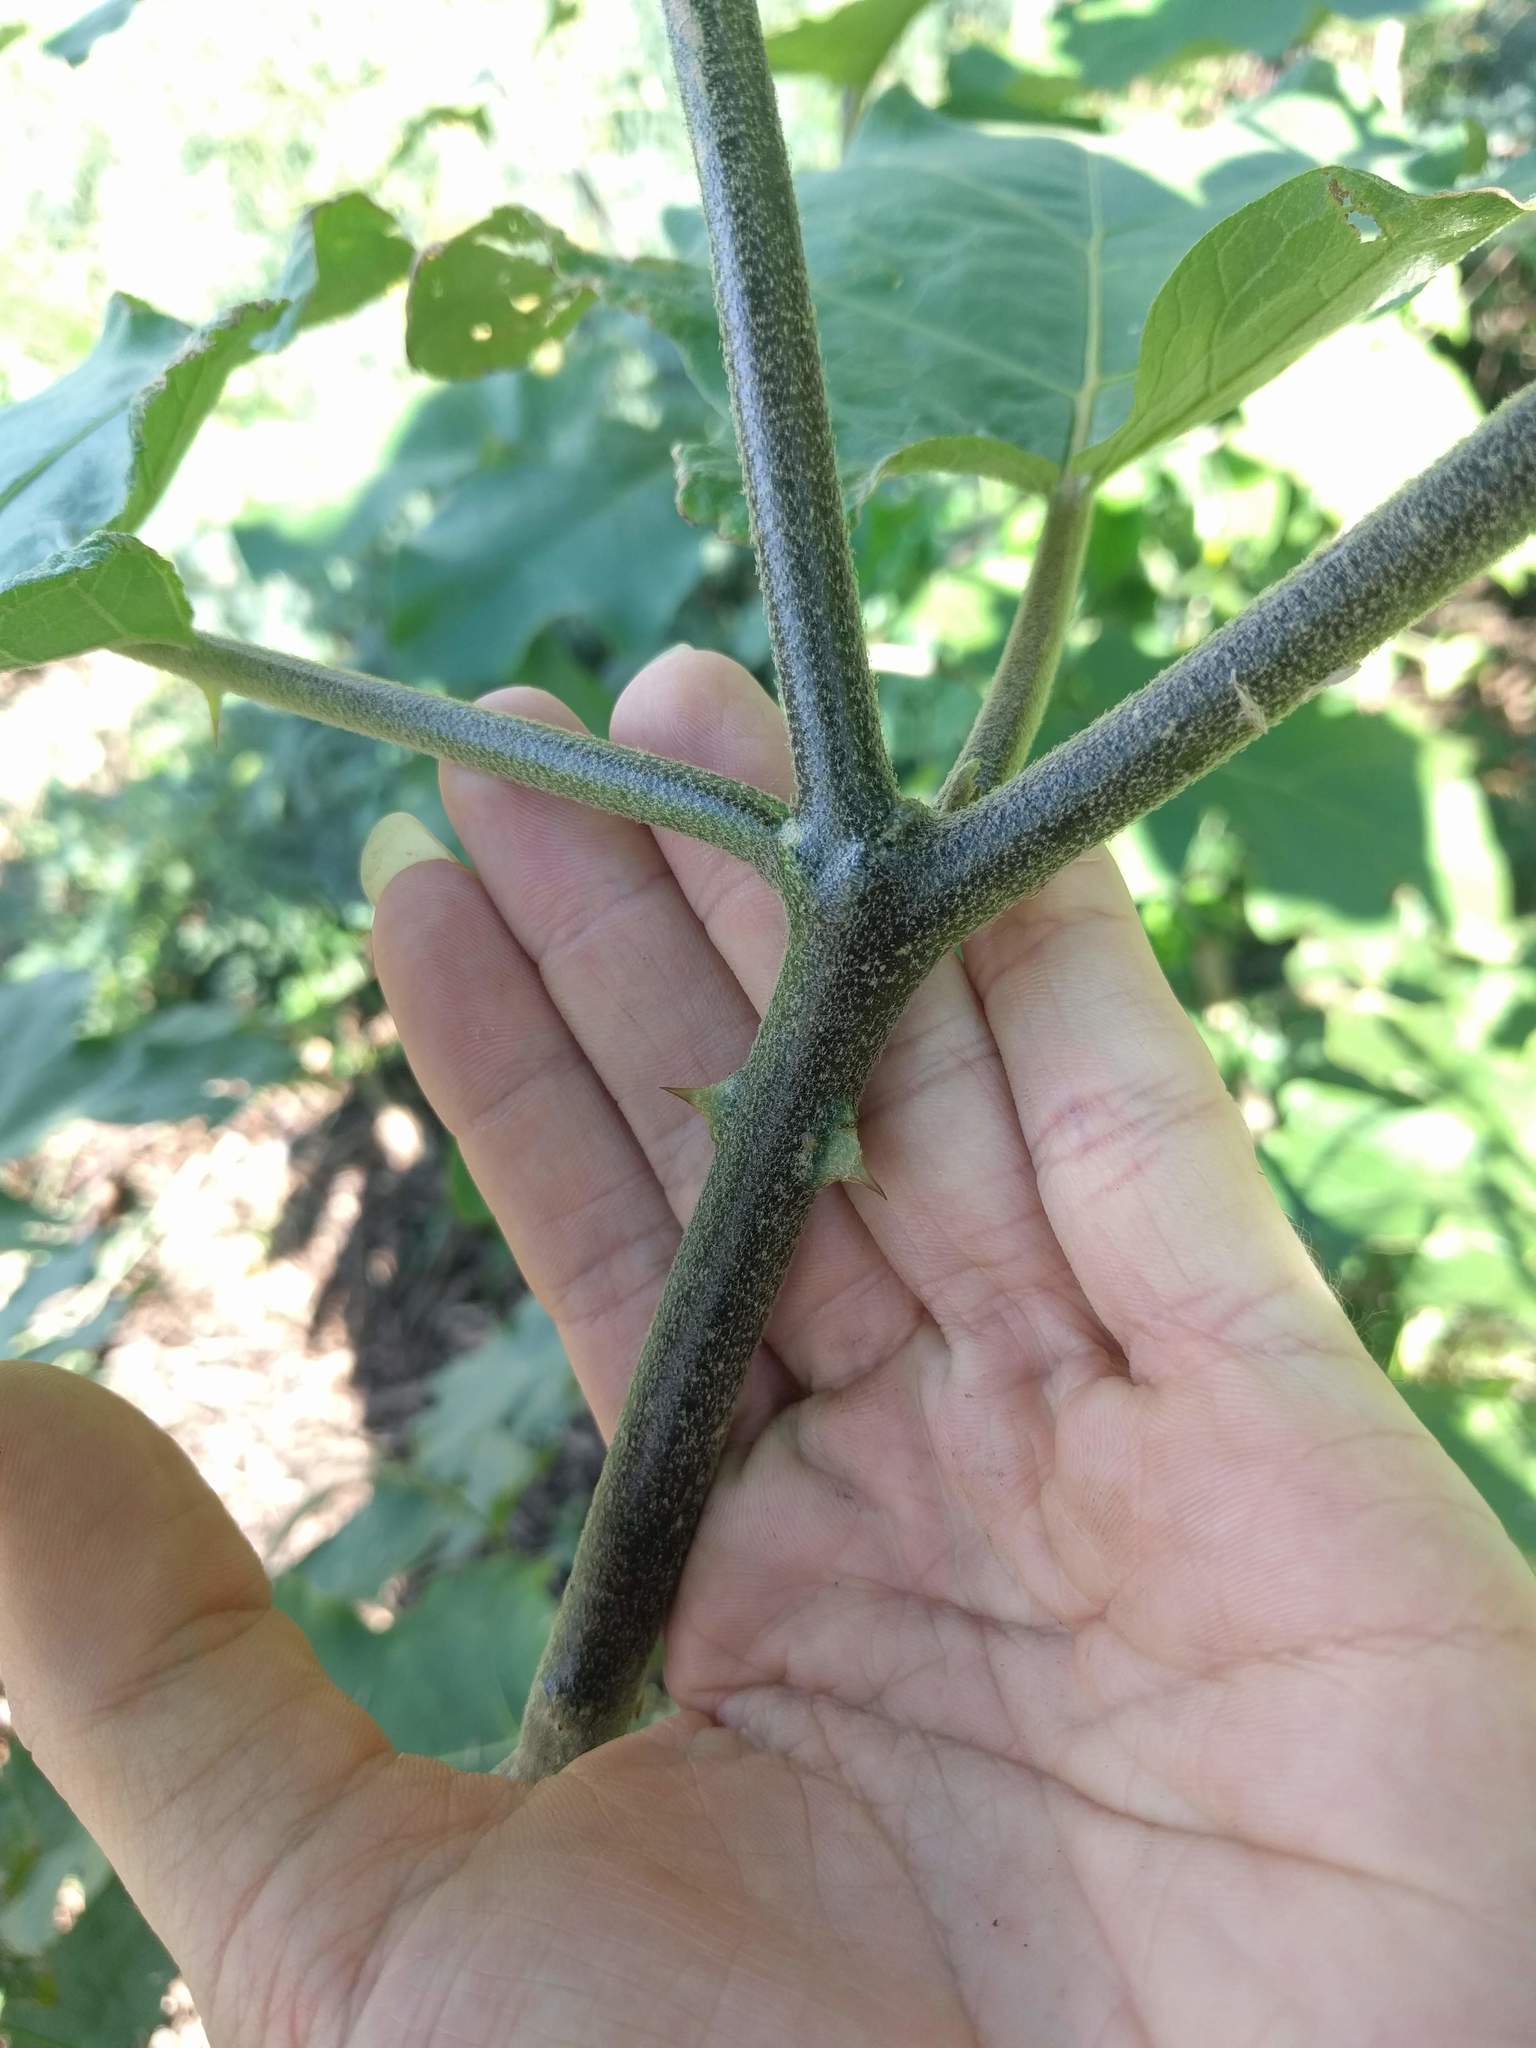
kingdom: Plantae
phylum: Tracheophyta
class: Magnoliopsida
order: Solanales
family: Solanaceae
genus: Solanum
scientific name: Solanum torvum
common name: Turkey berry
